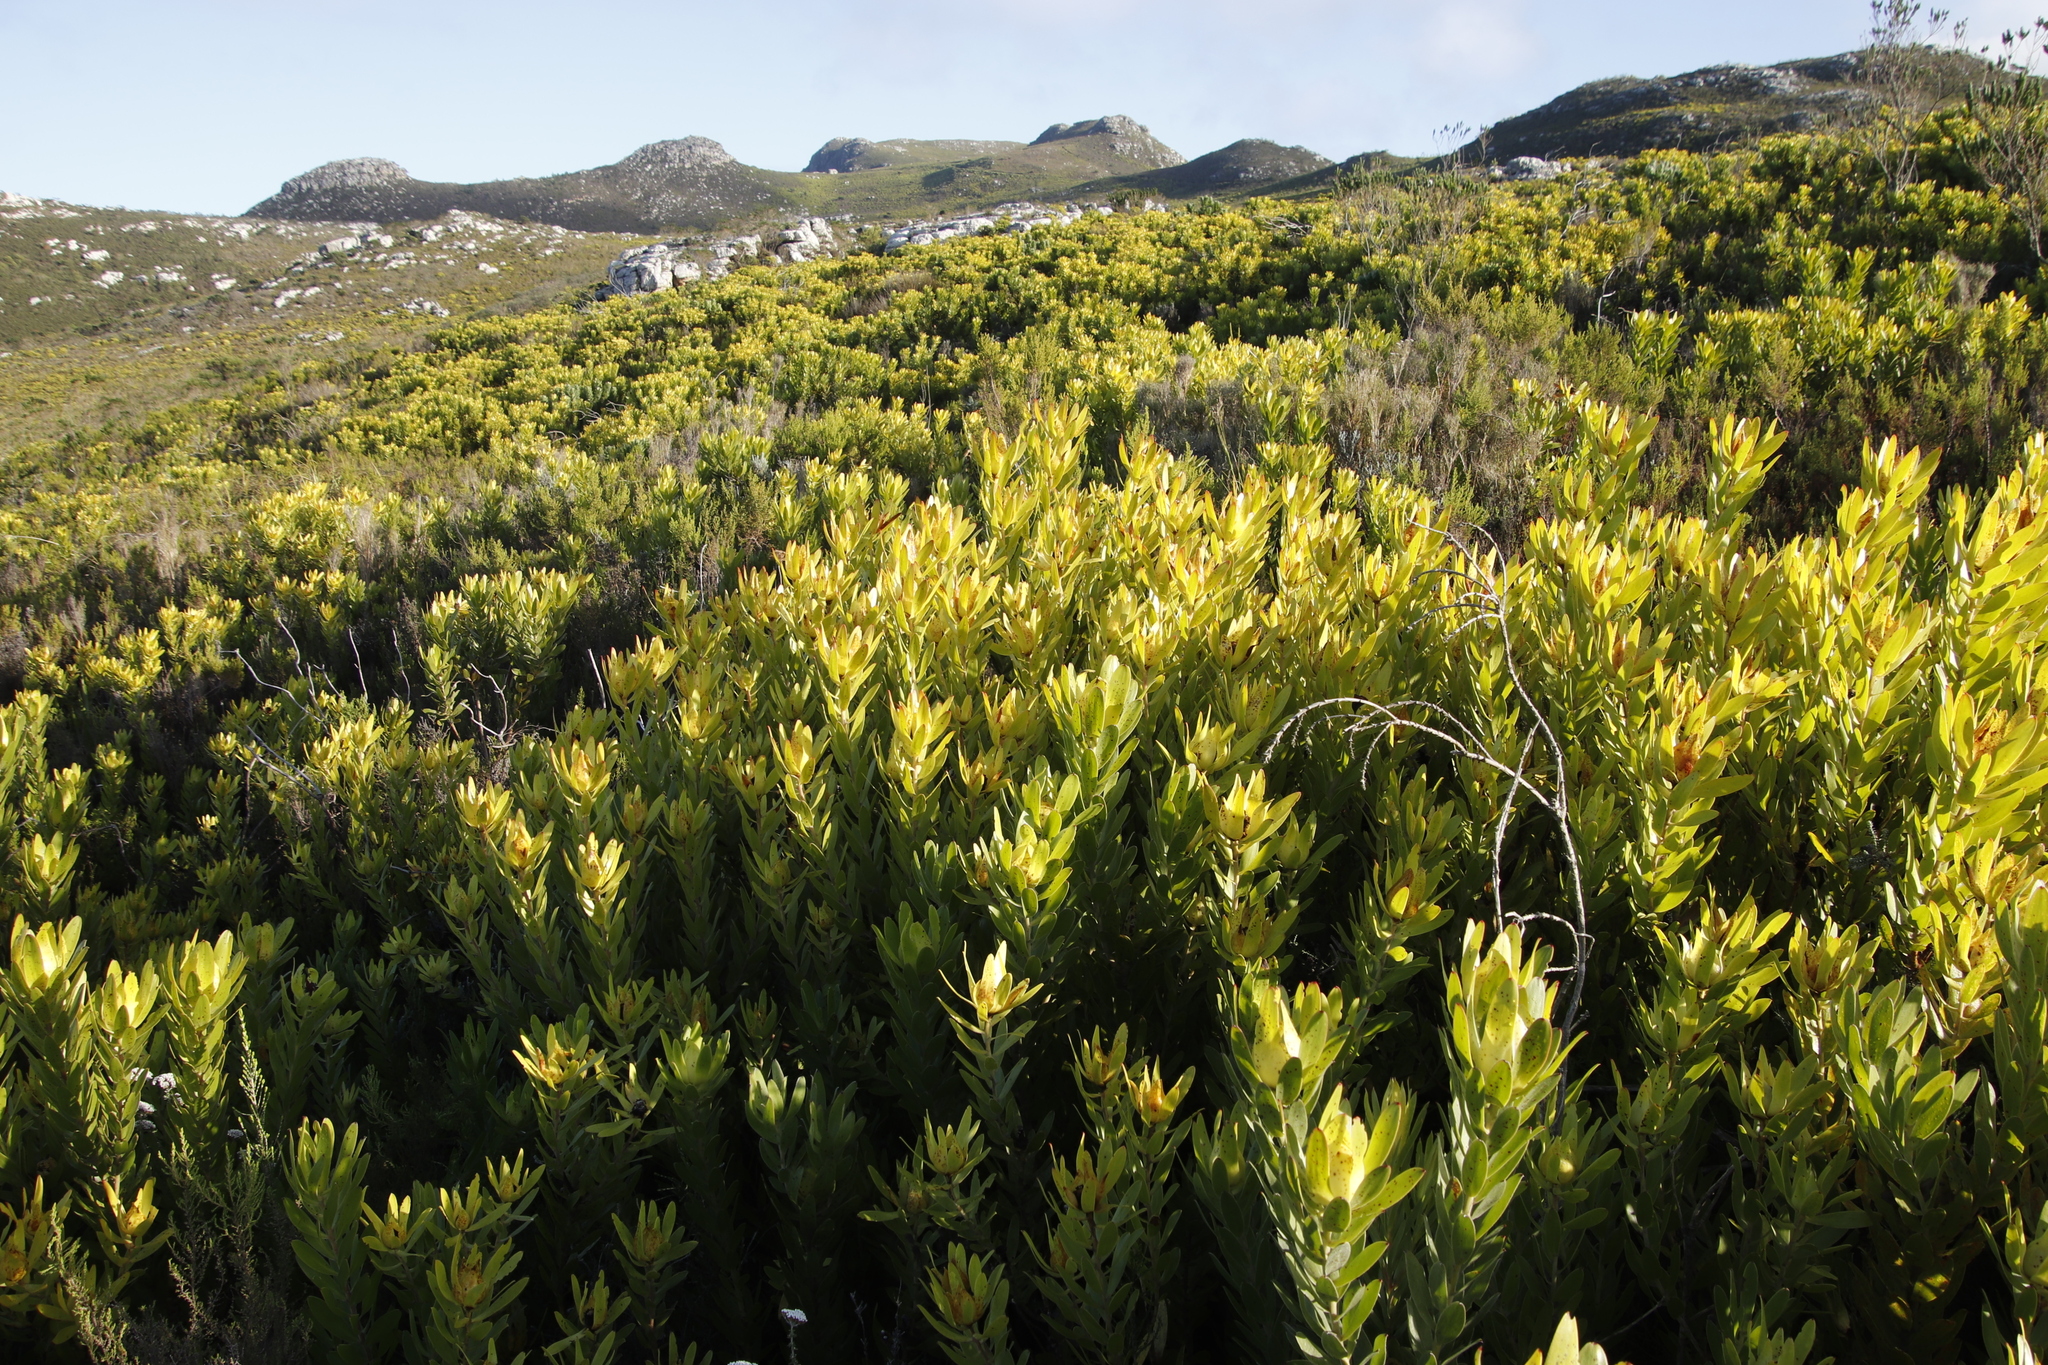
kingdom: Plantae
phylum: Tracheophyta
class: Magnoliopsida
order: Proteales
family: Proteaceae
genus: Leucadendron
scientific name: Leucadendron laureolum
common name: Golden sunshinebush
